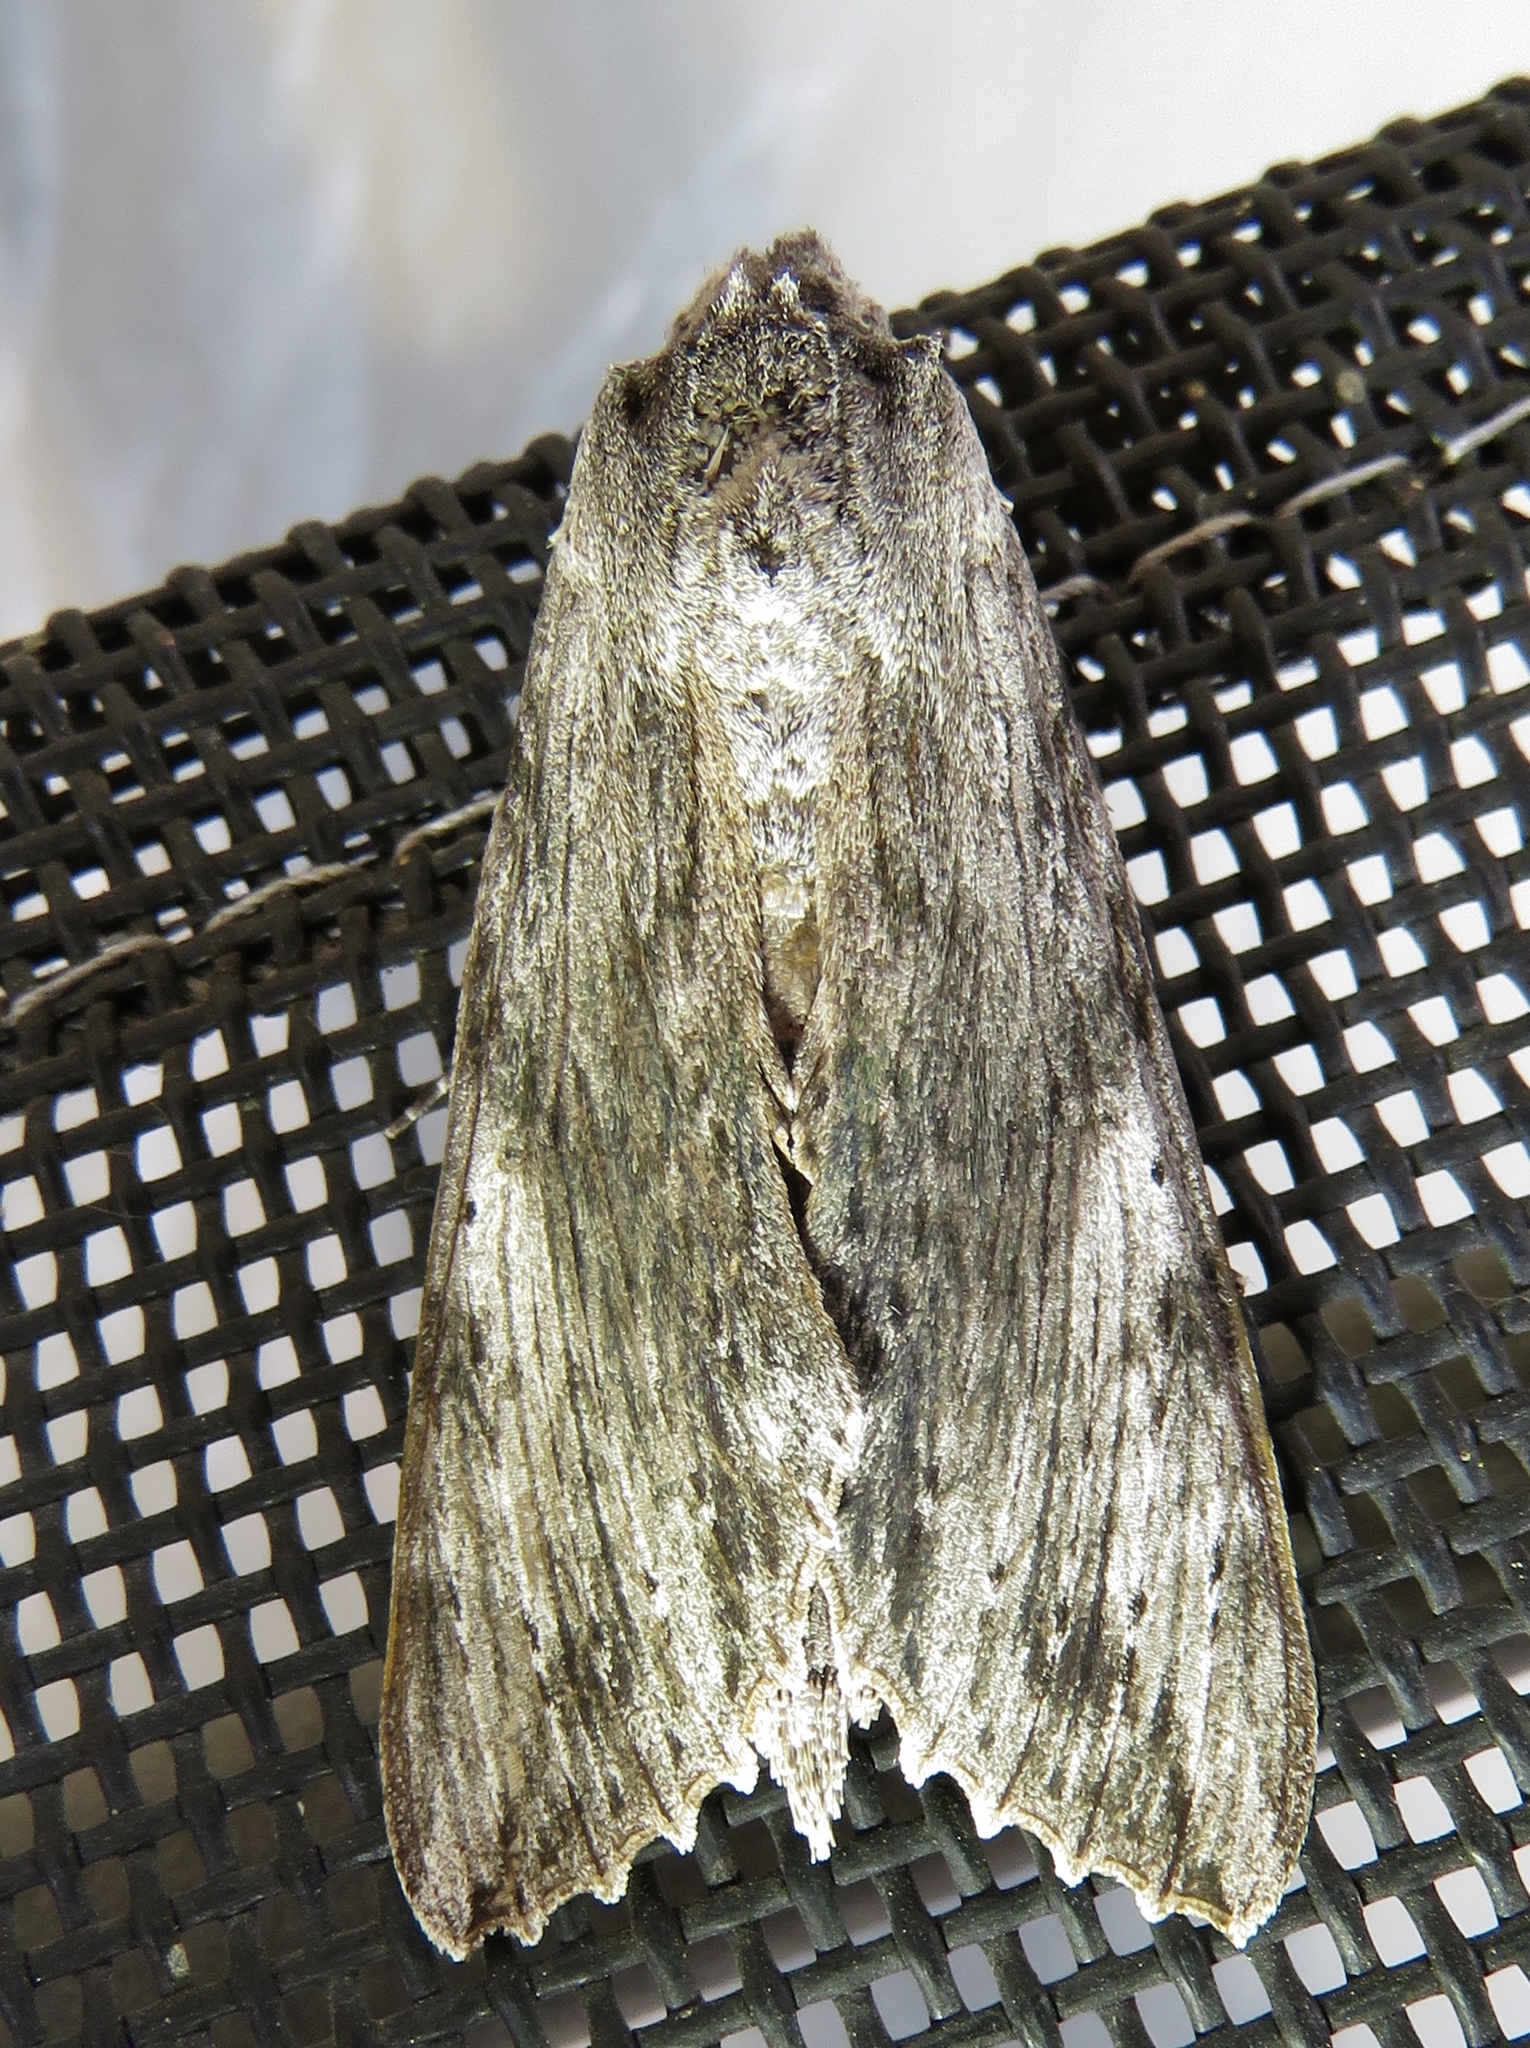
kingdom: Animalia
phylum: Arthropoda
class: Insecta
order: Lepidoptera
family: Sphingidae
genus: Erinnyis
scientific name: Erinnyis obscura
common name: Obscure sphinx
